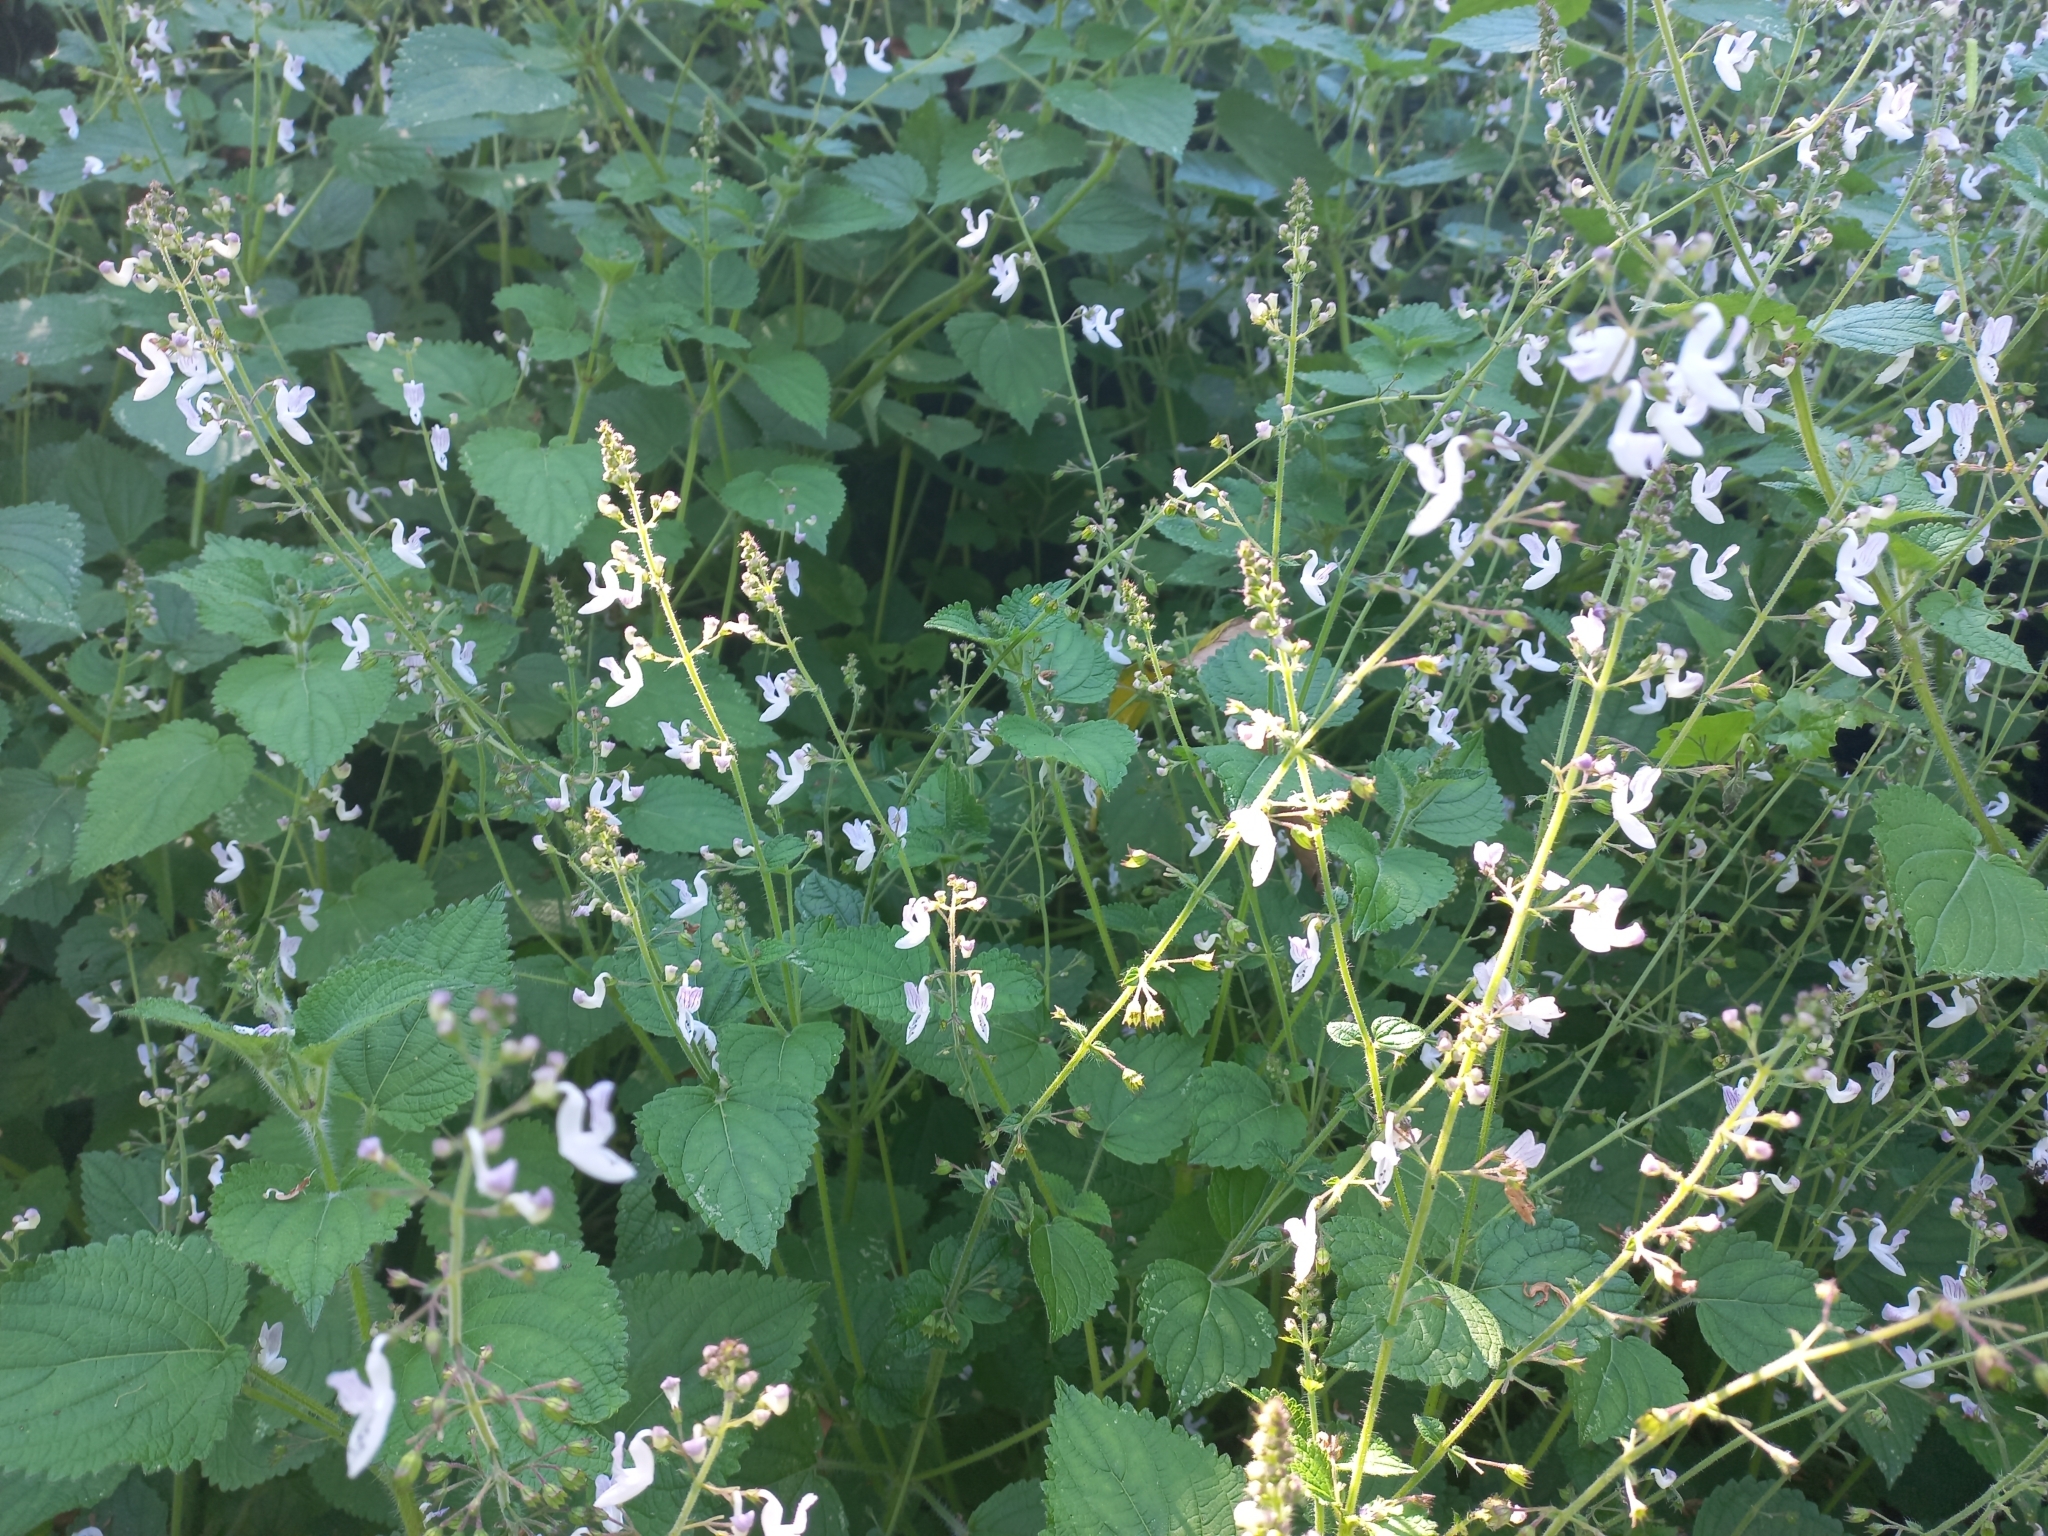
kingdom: Plantae
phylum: Tracheophyta
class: Magnoliopsida
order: Lamiales
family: Lamiaceae
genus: Equilabium
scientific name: Equilabium laxiflorum
